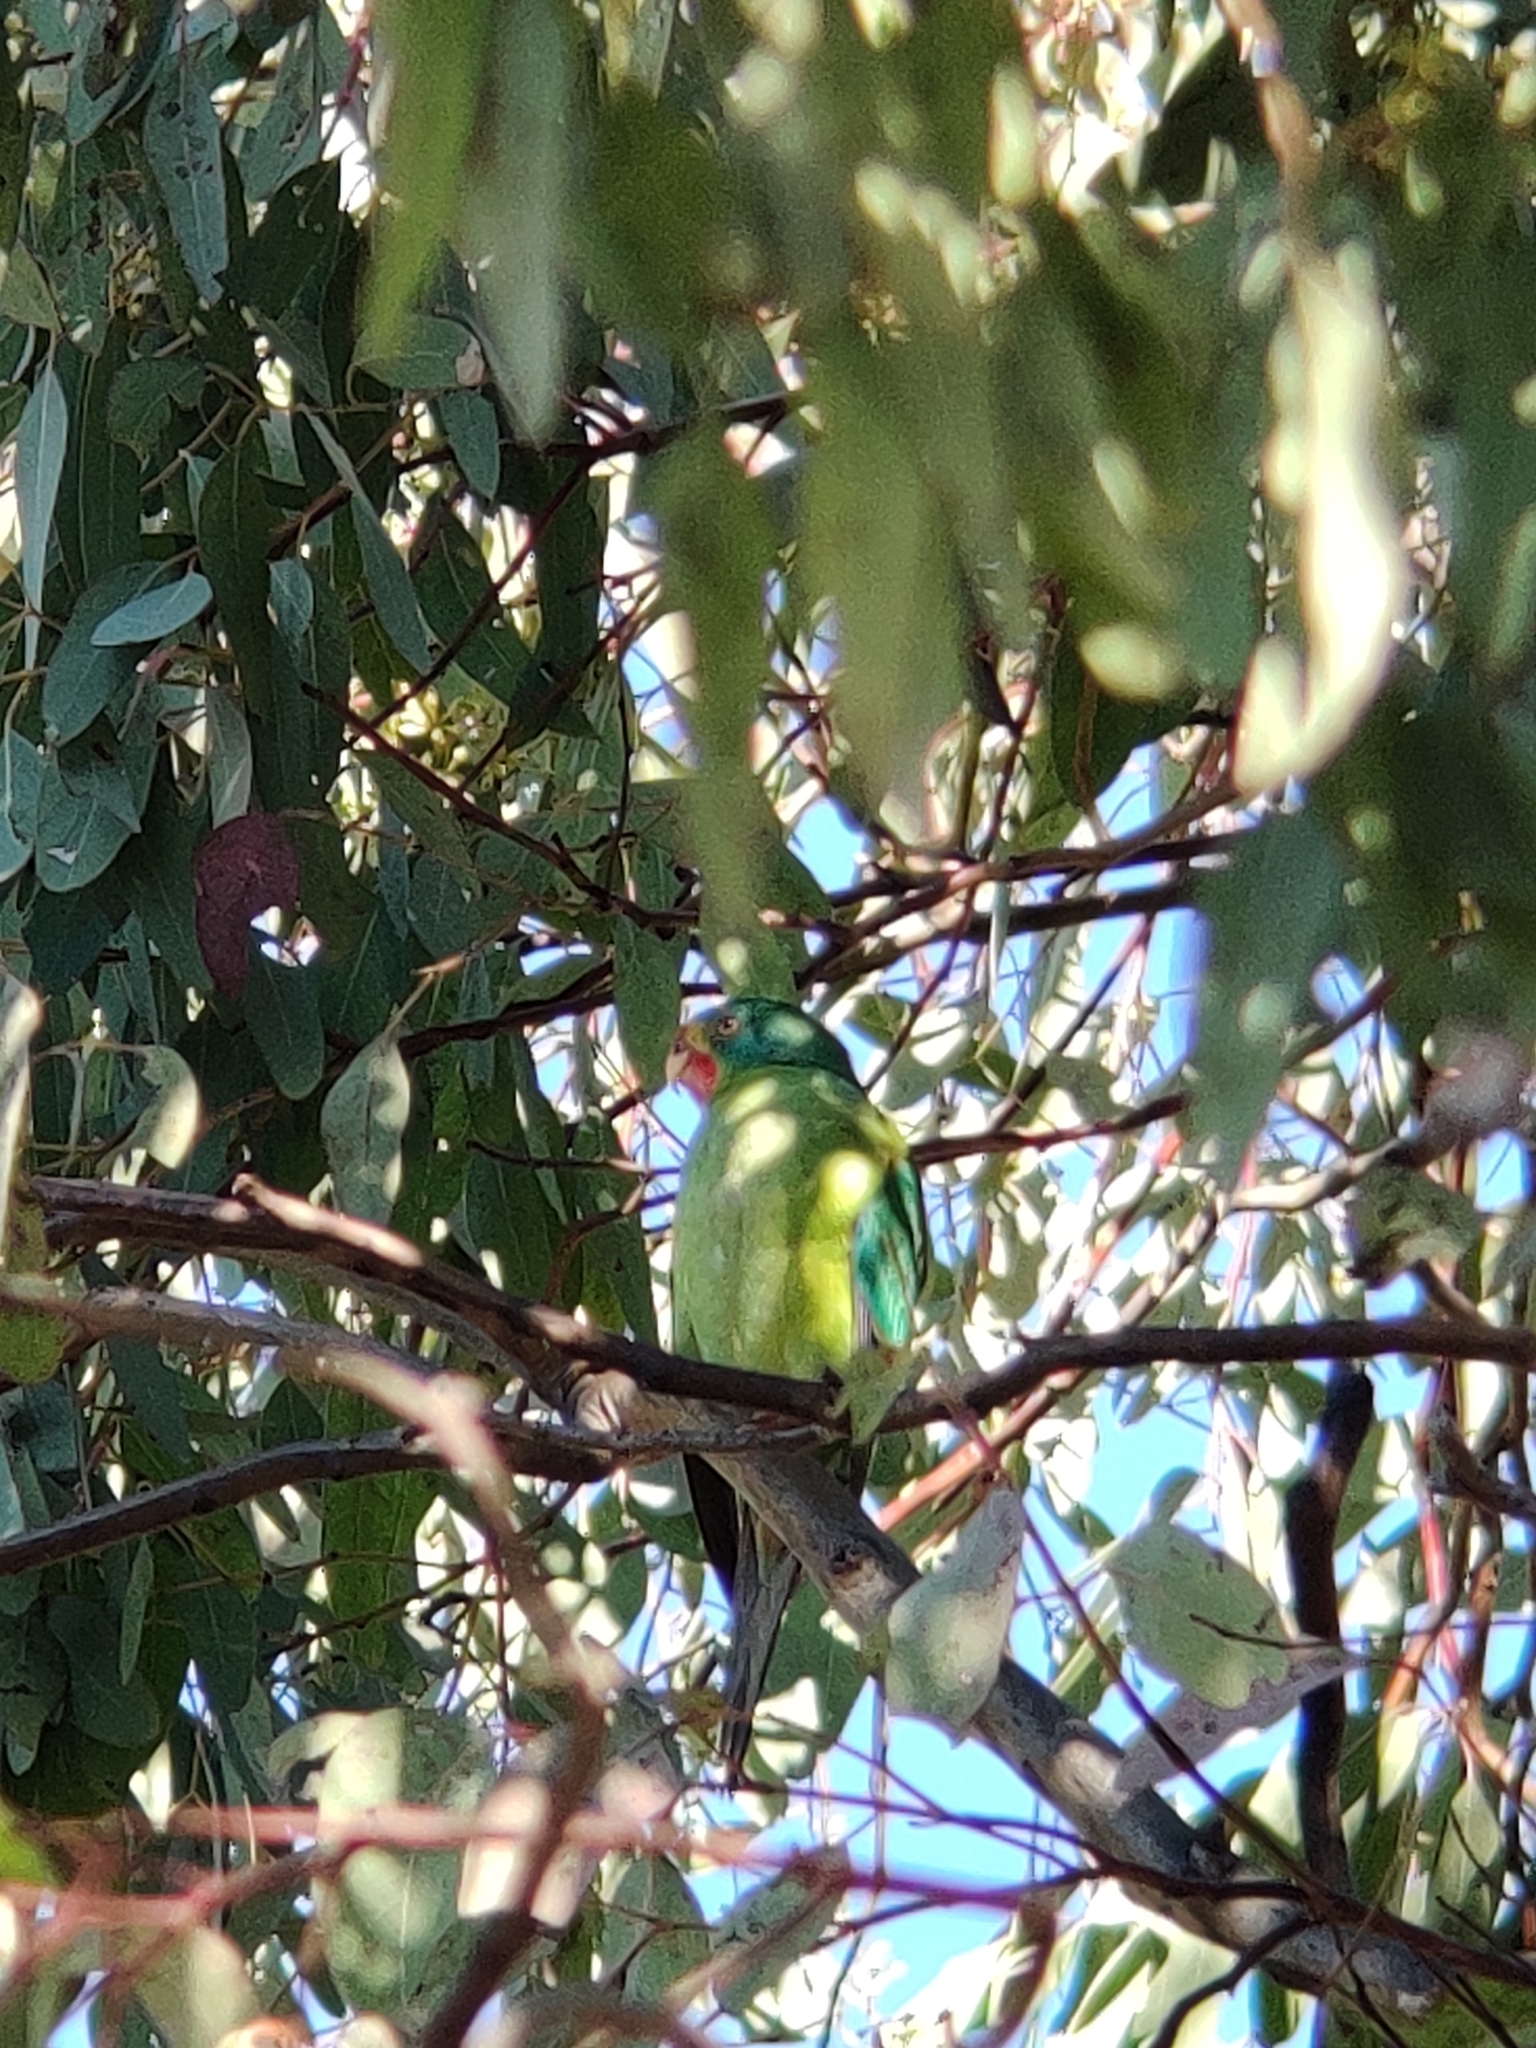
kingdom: Animalia
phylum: Chordata
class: Aves
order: Psittaciformes
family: Psittacidae
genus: Lathamus
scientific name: Lathamus discolor
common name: Swift parrot
